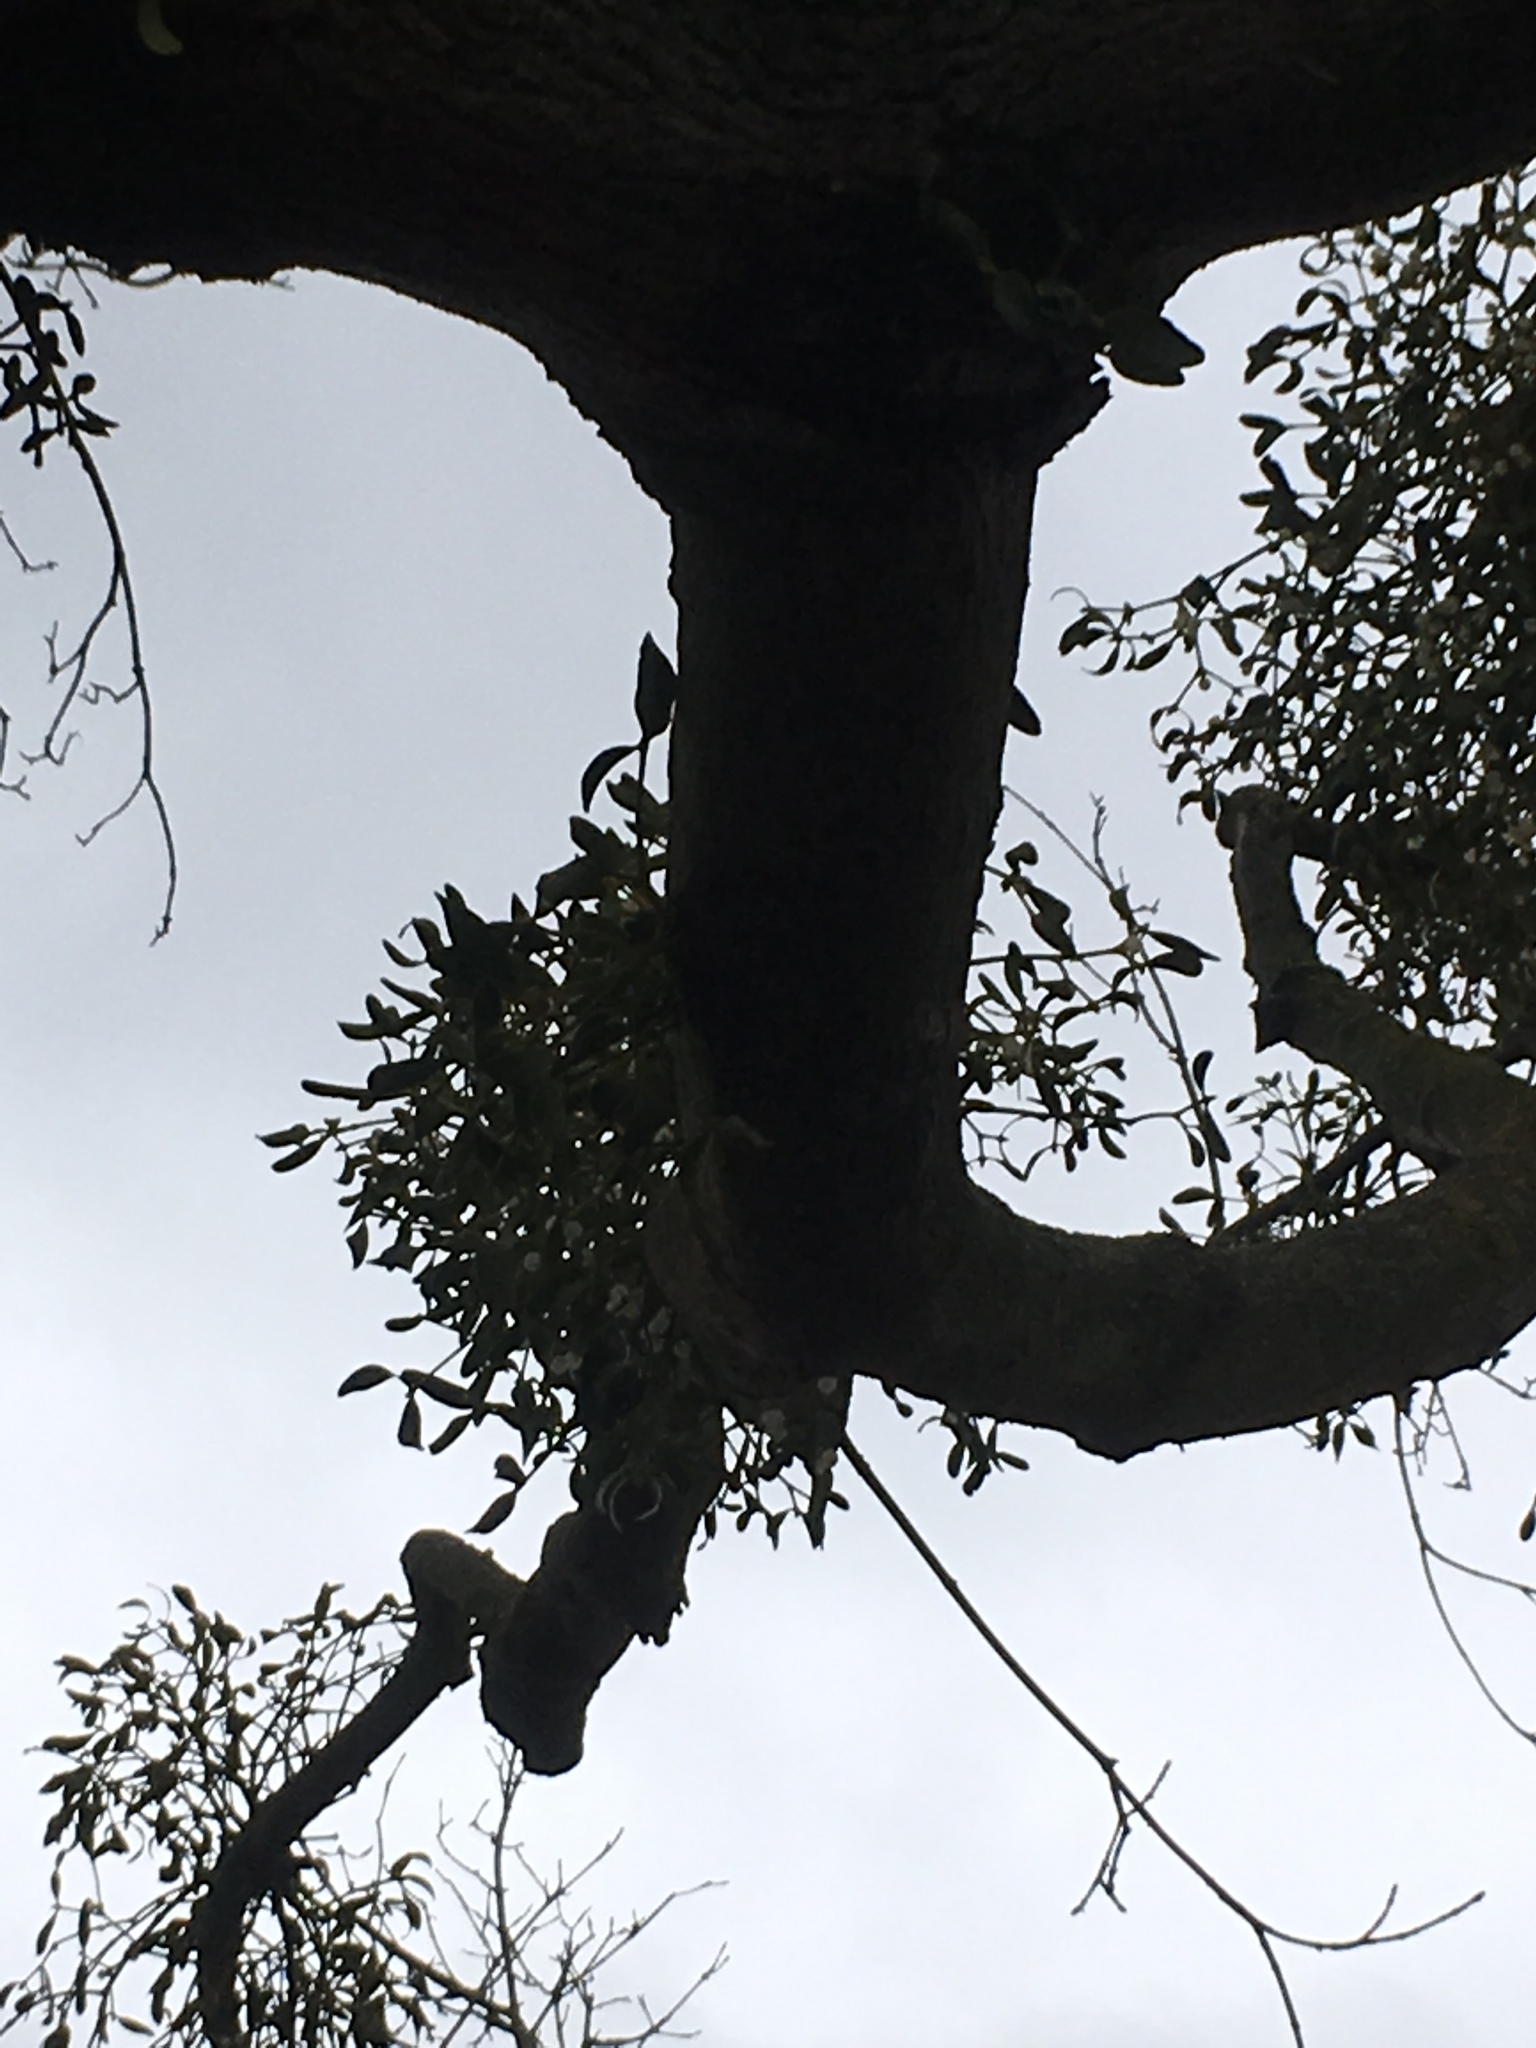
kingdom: Plantae
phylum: Tracheophyta
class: Magnoliopsida
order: Santalales
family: Viscaceae
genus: Viscum
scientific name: Viscum album
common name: Mistletoe
